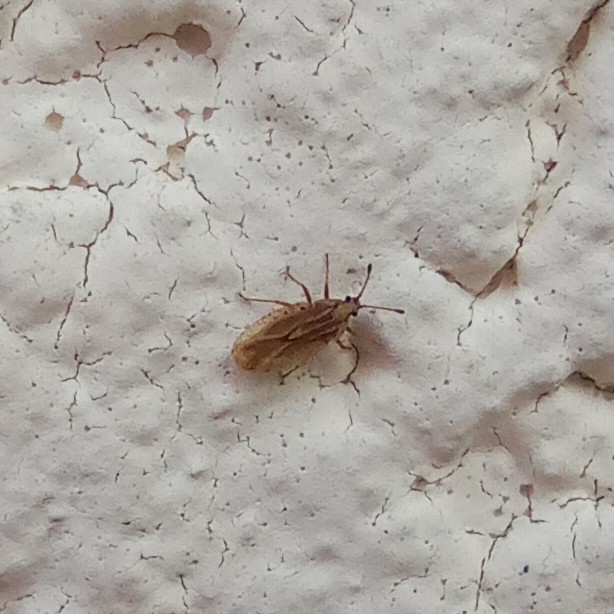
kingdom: Plantae
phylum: Tracheophyta
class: Liliopsida
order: Poales
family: Juncaceae
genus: Elasmotropis
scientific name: Elasmotropis testacea
